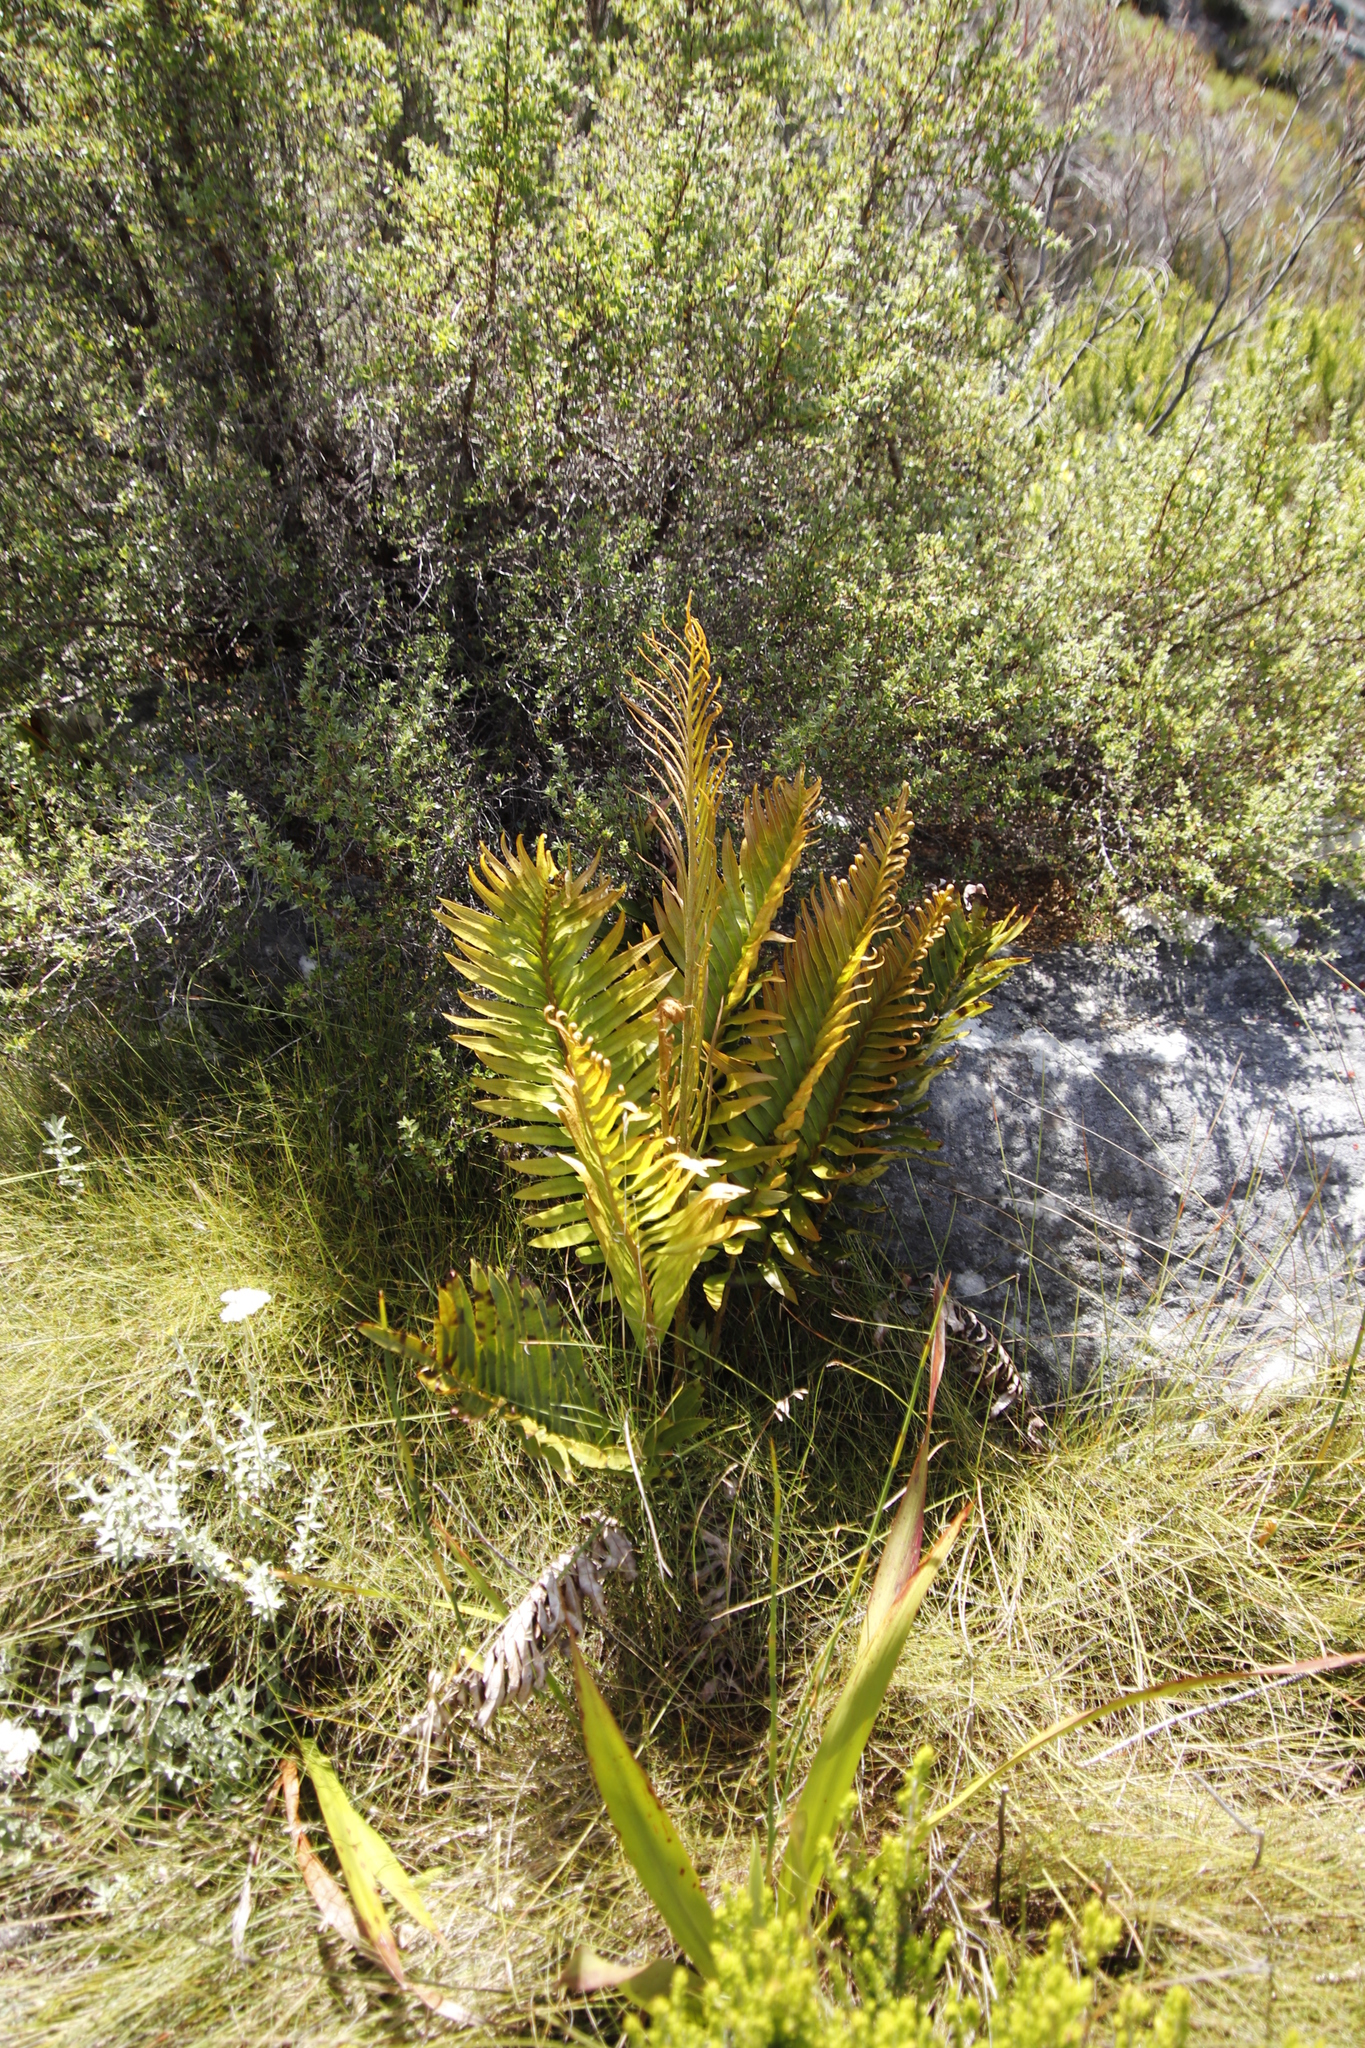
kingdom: Plantae
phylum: Tracheophyta
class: Polypodiopsida
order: Polypodiales
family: Blechnaceae
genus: Lomariocycas
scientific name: Lomariocycas tabularis
